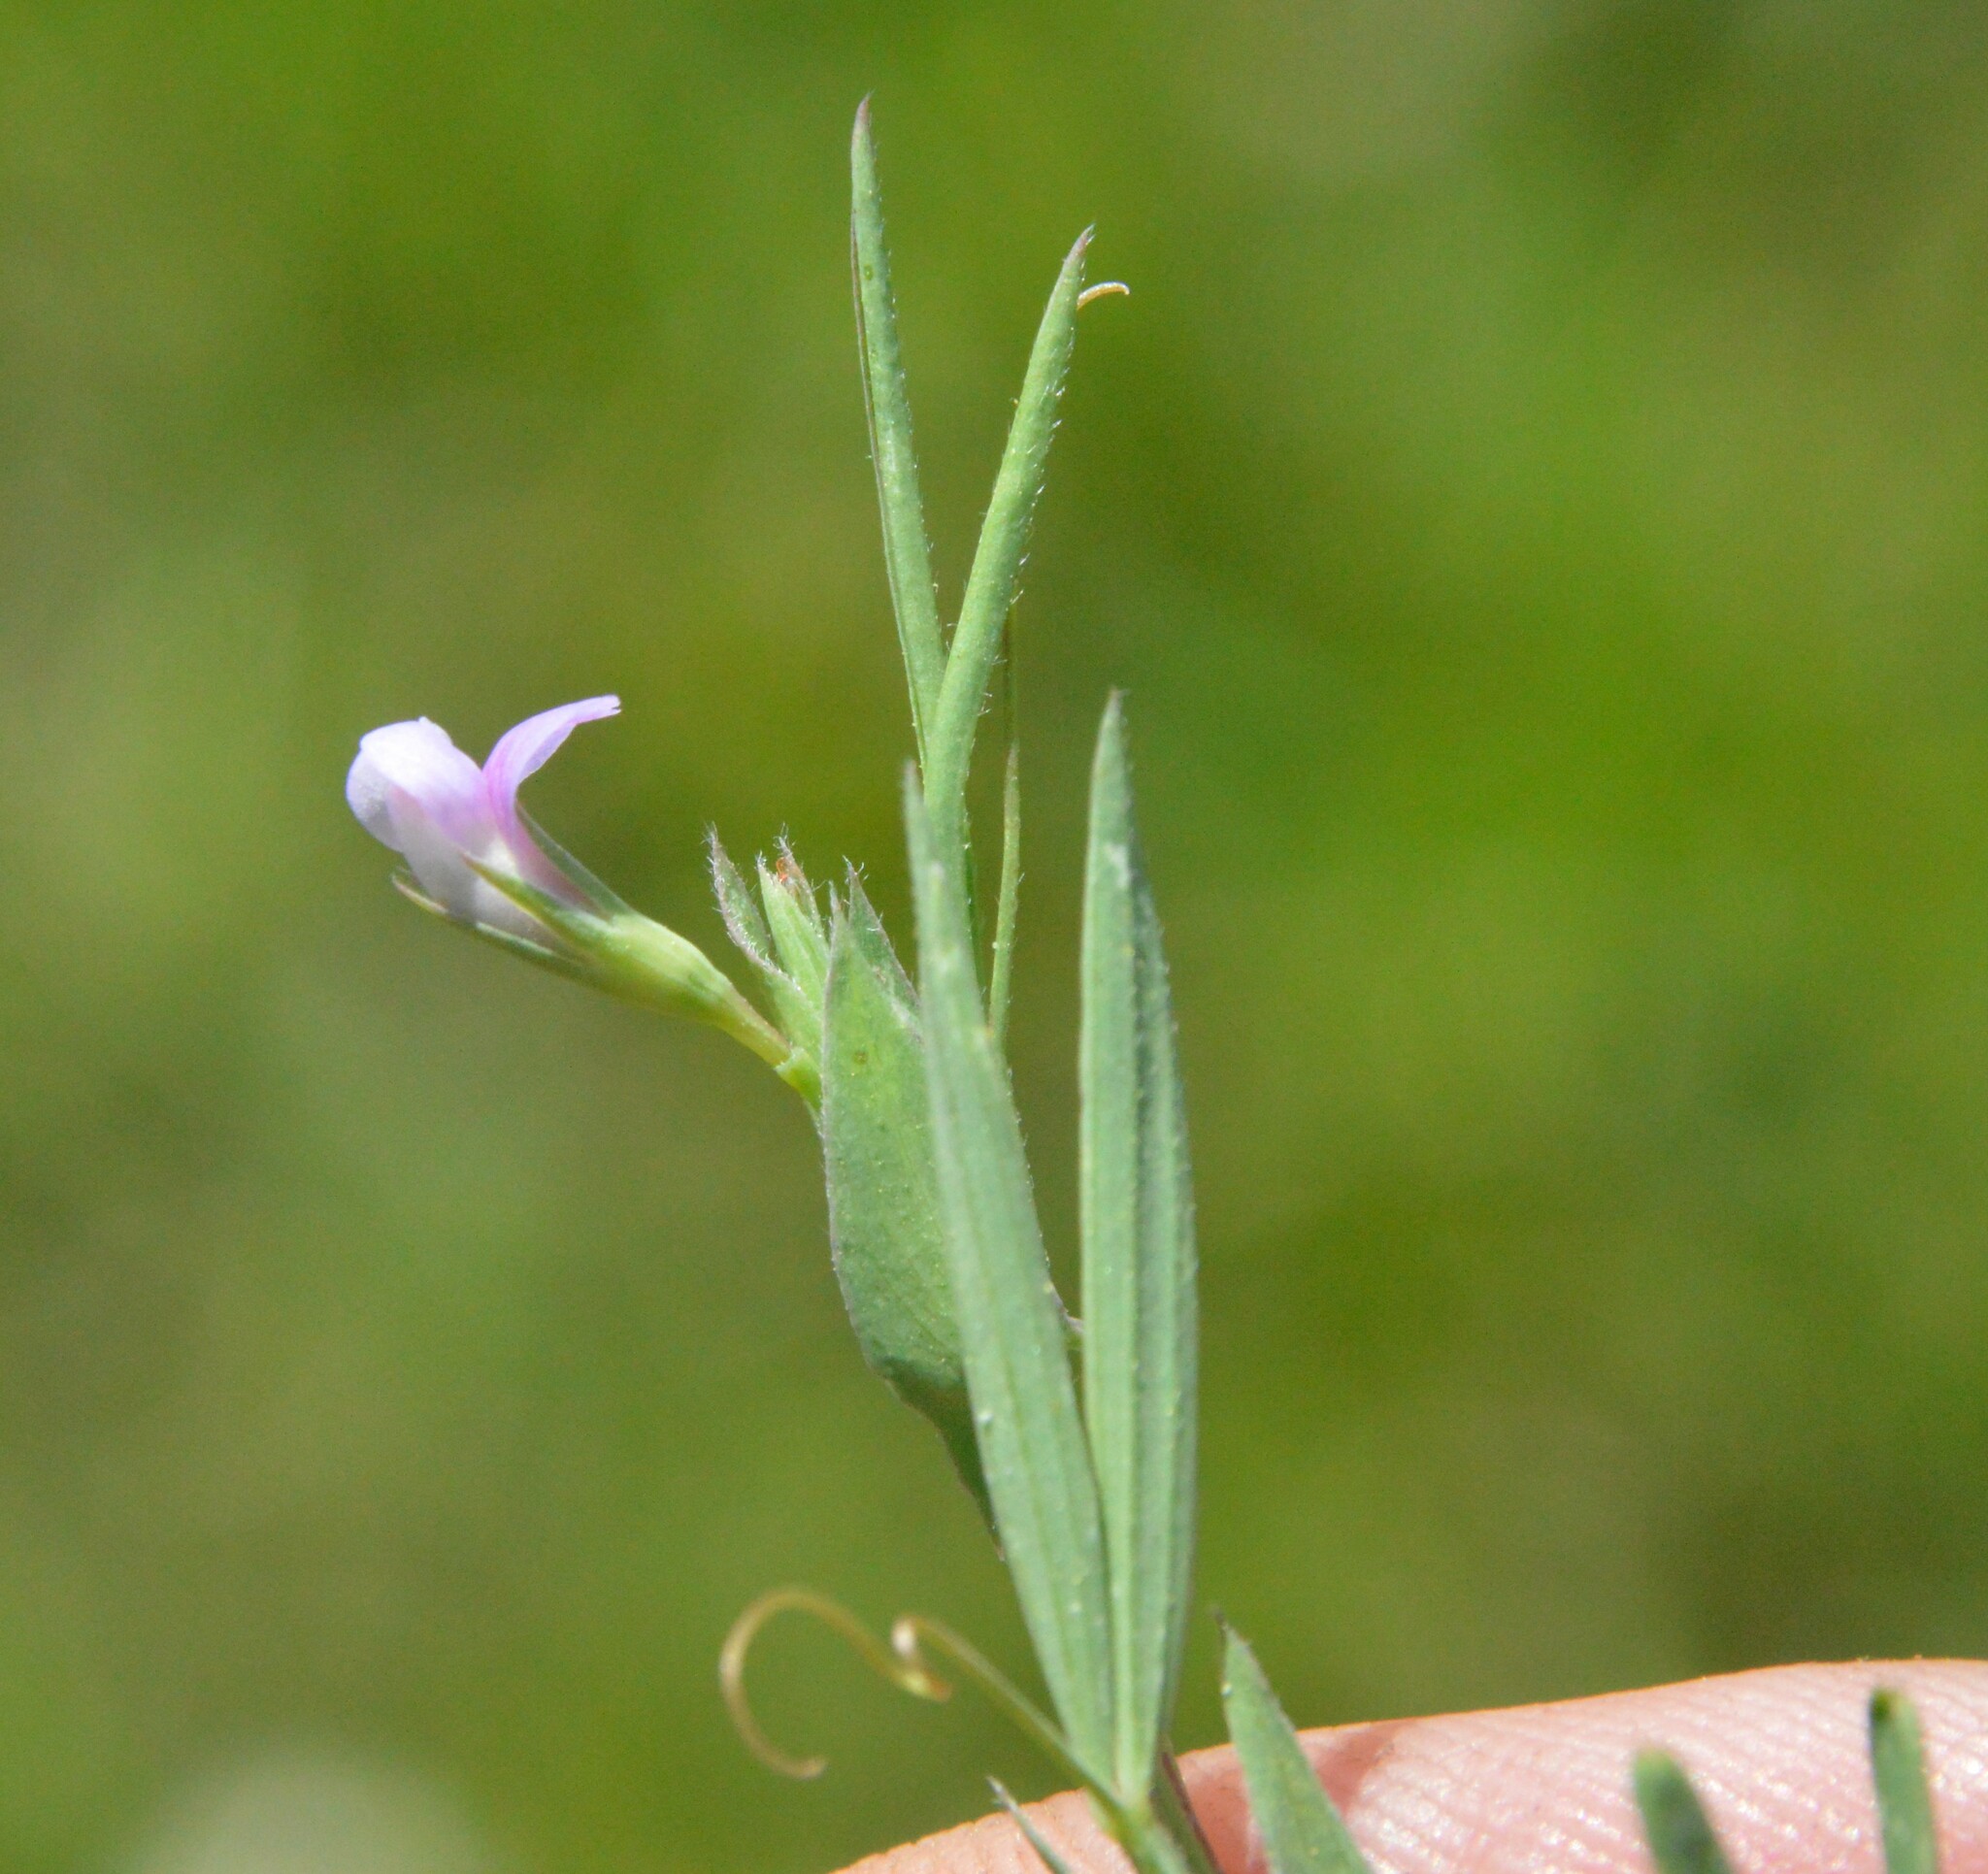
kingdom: Plantae
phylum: Tracheophyta
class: Magnoliopsida
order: Fabales
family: Fabaceae
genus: Lathyrus
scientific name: Lathyrus pusillus
